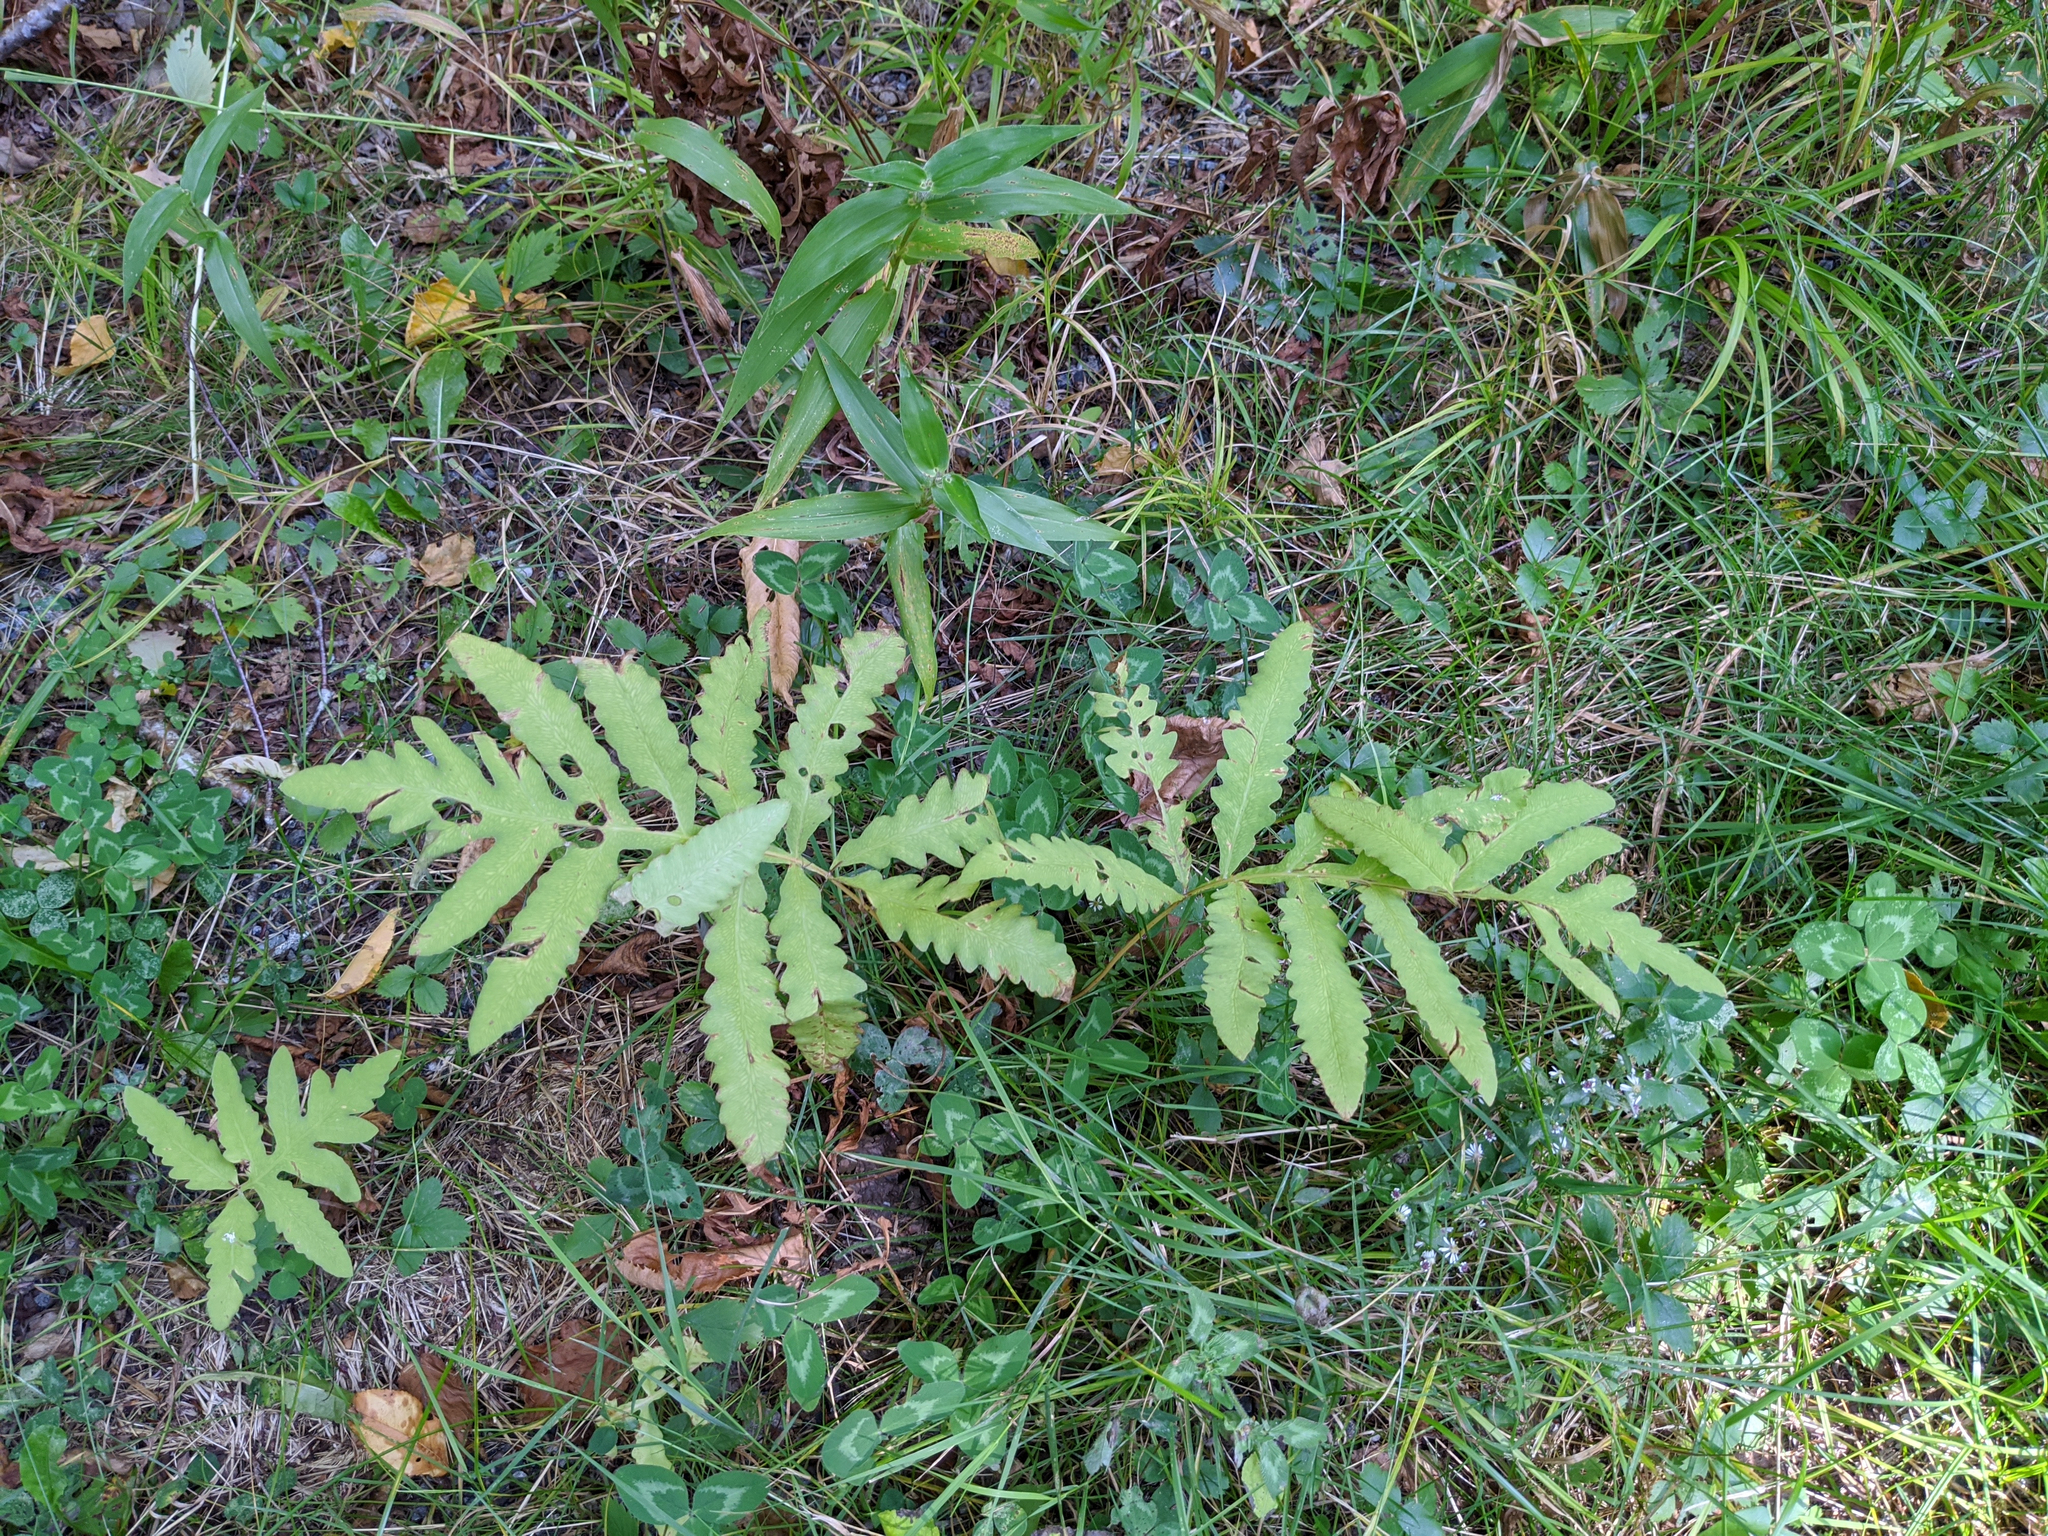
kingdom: Plantae
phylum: Tracheophyta
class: Polypodiopsida
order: Polypodiales
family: Onocleaceae
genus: Onoclea
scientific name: Onoclea sensibilis
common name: Sensitive fern
